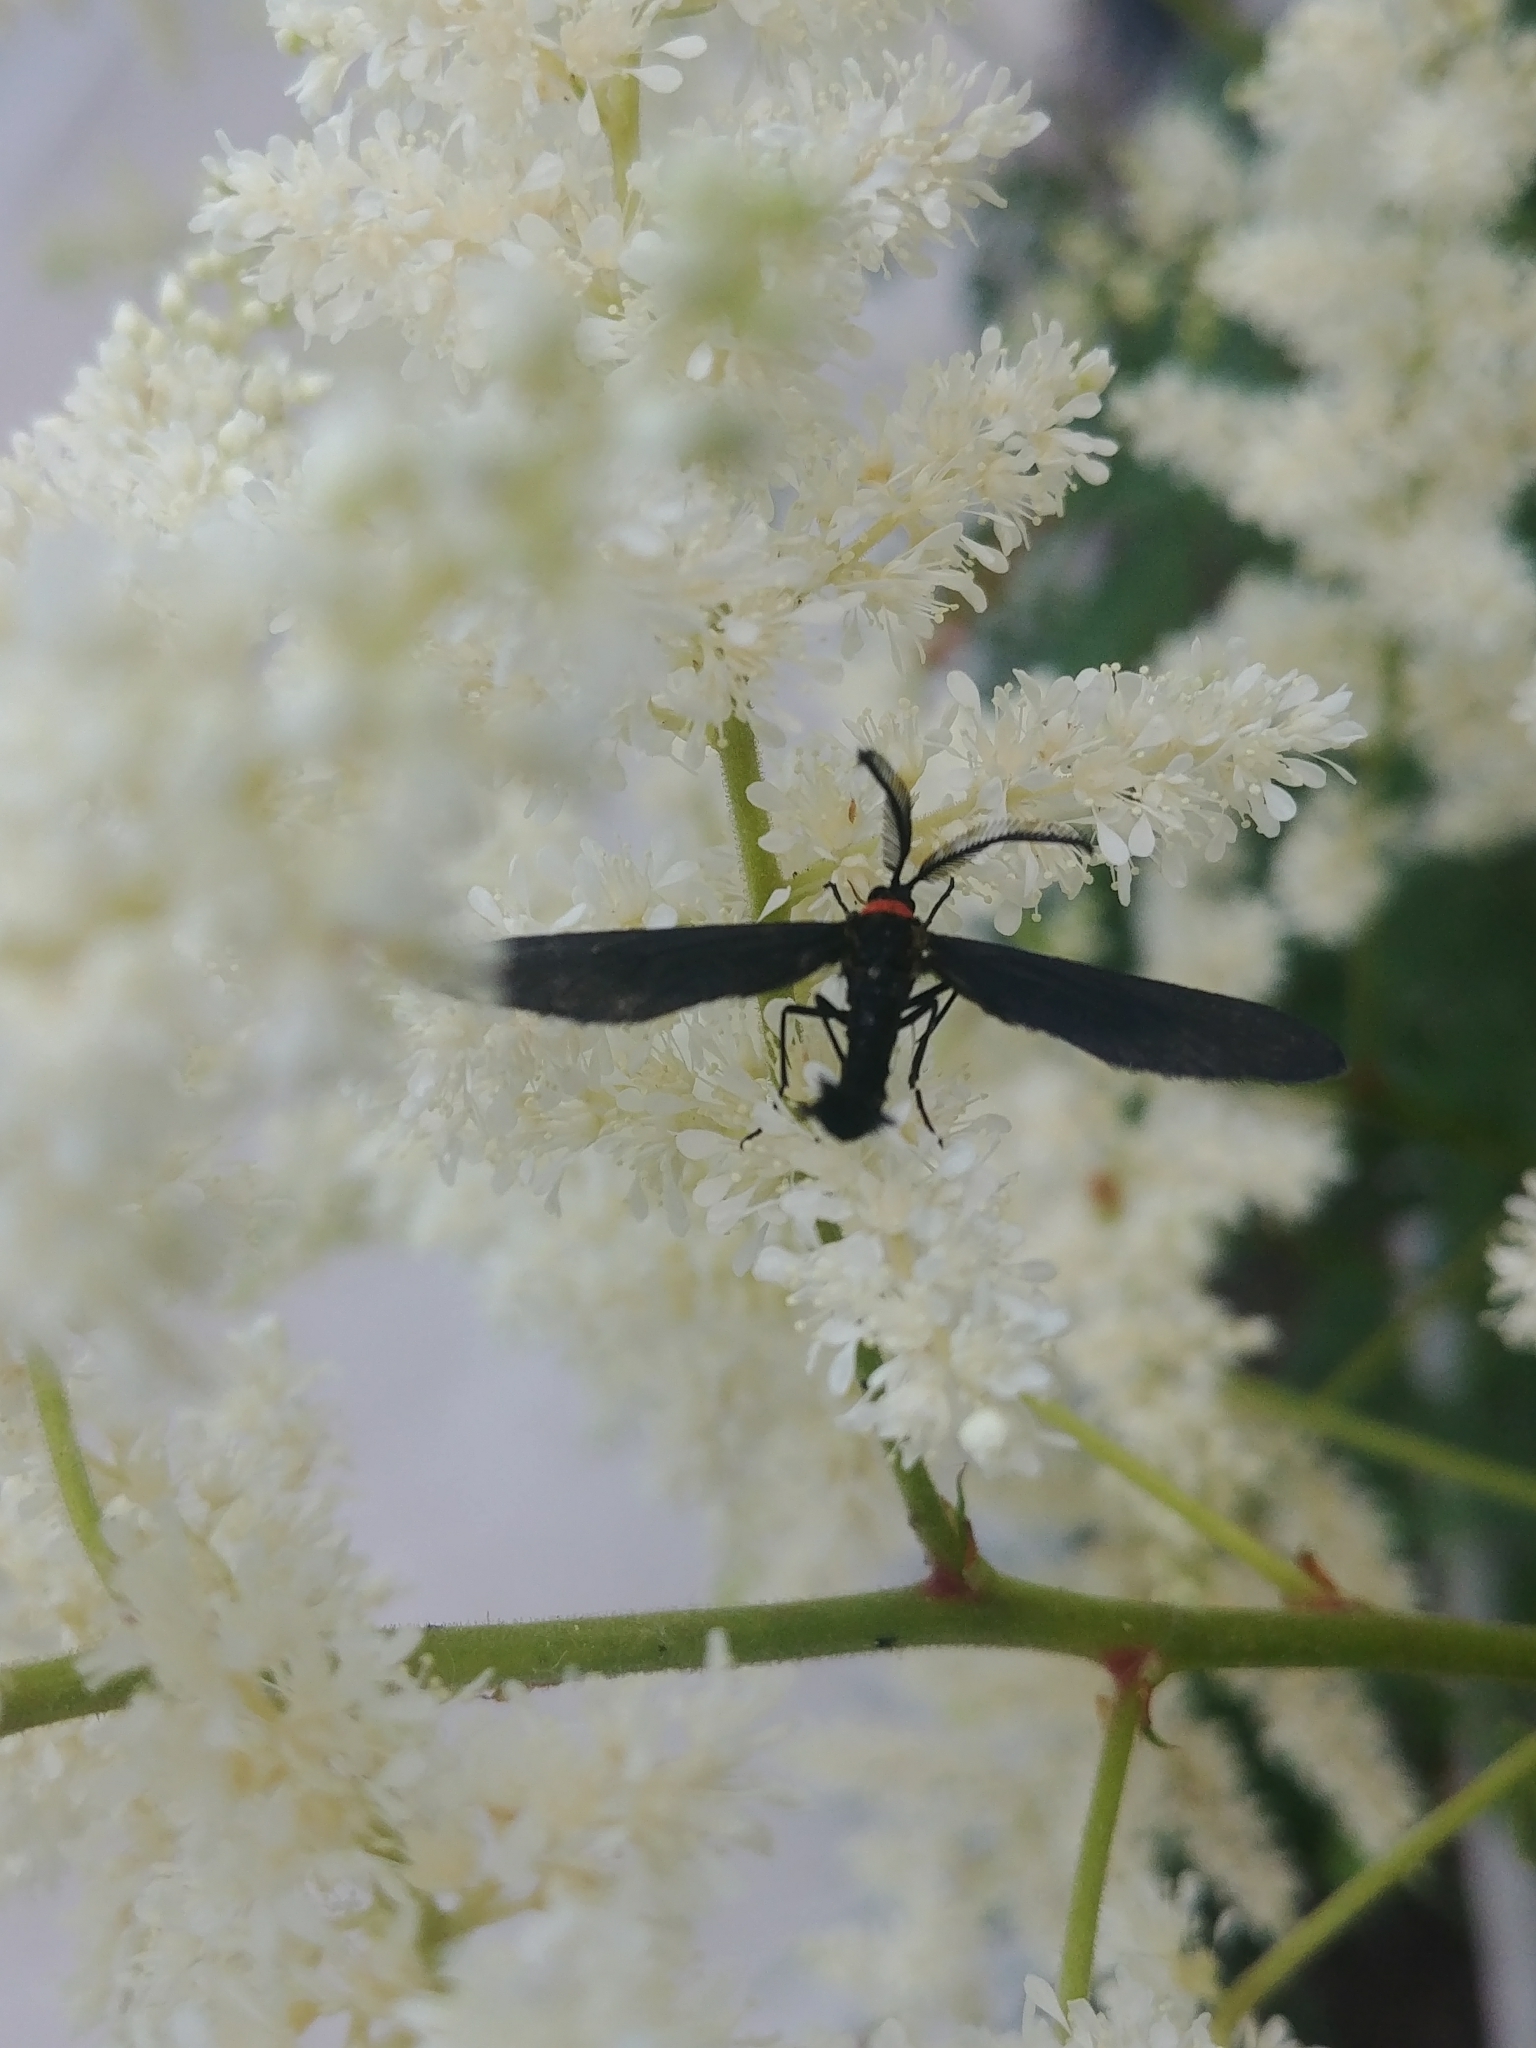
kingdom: Animalia
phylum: Arthropoda
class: Insecta
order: Lepidoptera
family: Zygaenidae
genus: Harrisina
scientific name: Harrisina americana
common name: Grapeleaf skeletonizer moth
